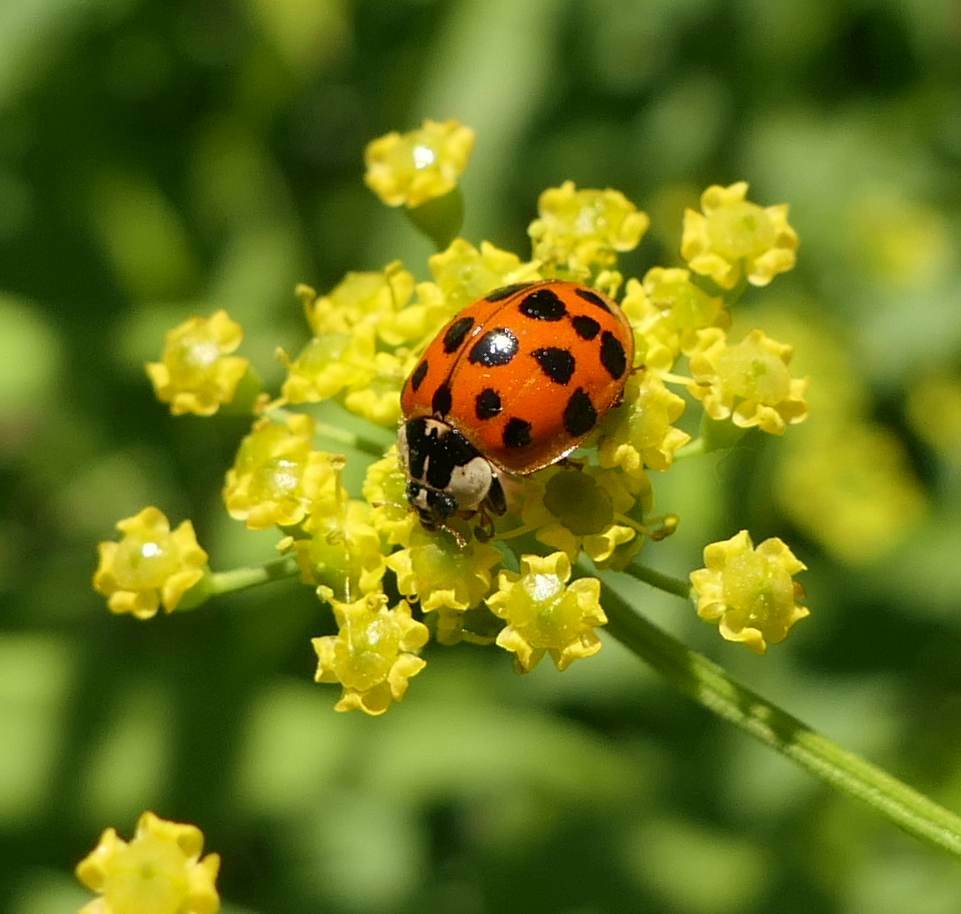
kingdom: Animalia
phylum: Arthropoda
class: Insecta
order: Coleoptera
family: Coccinellidae
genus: Harmonia
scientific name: Harmonia axyridis
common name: Harlequin ladybird
